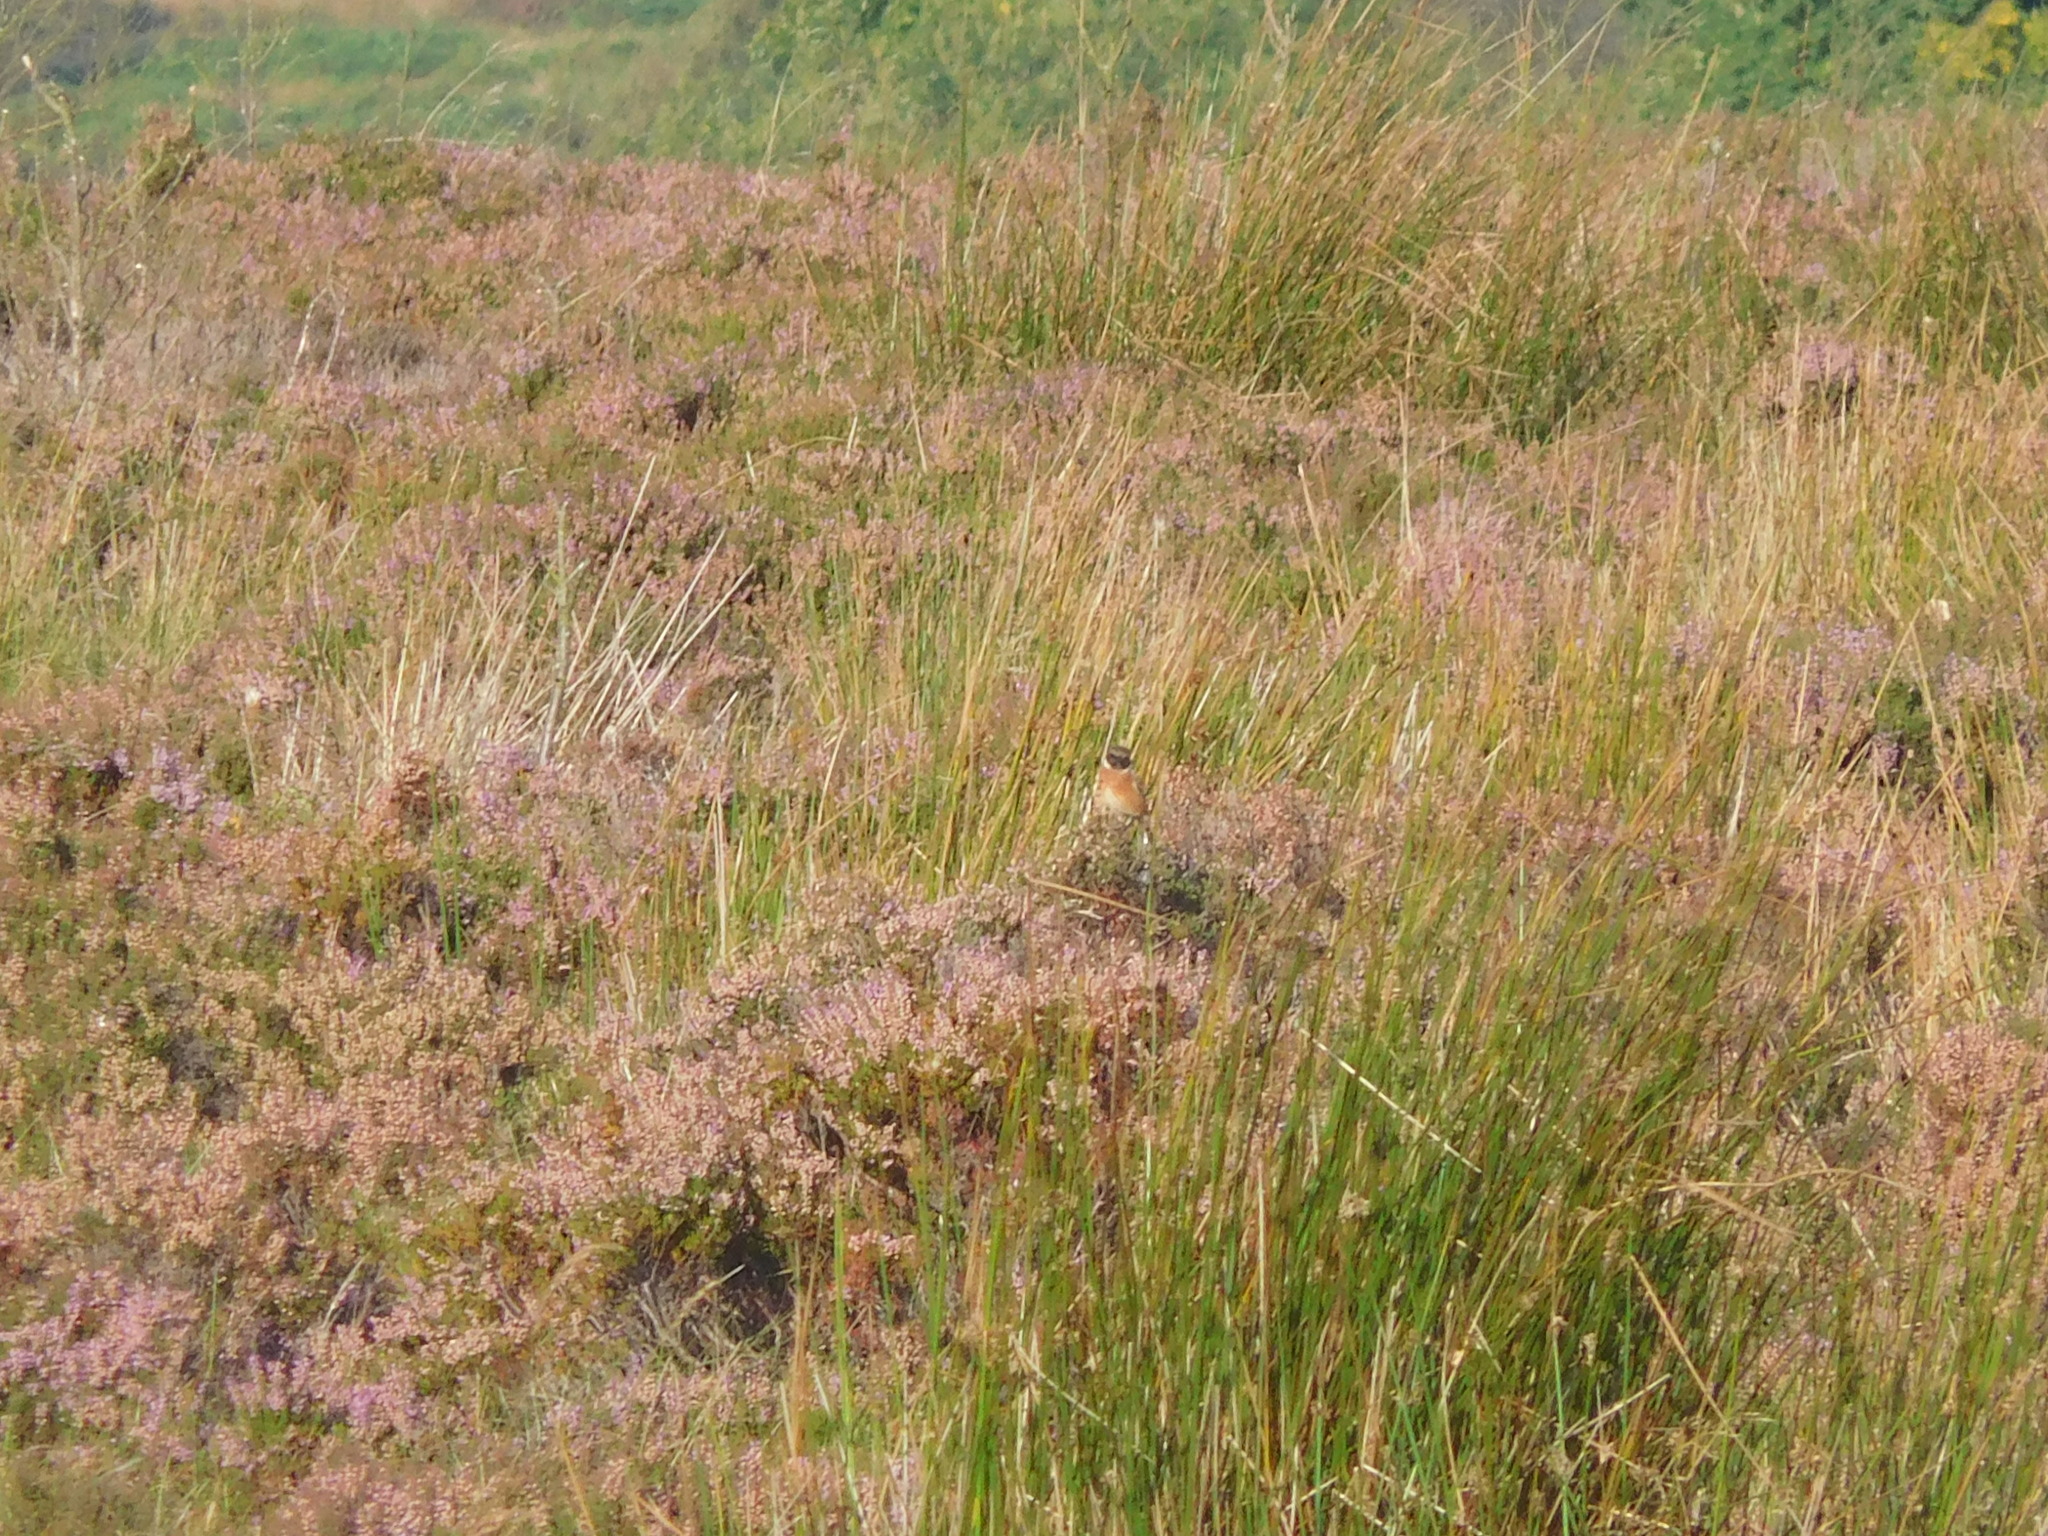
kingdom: Animalia
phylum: Chordata
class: Aves
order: Passeriformes
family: Muscicapidae
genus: Saxicola
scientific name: Saxicola rubicola
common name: European stonechat
